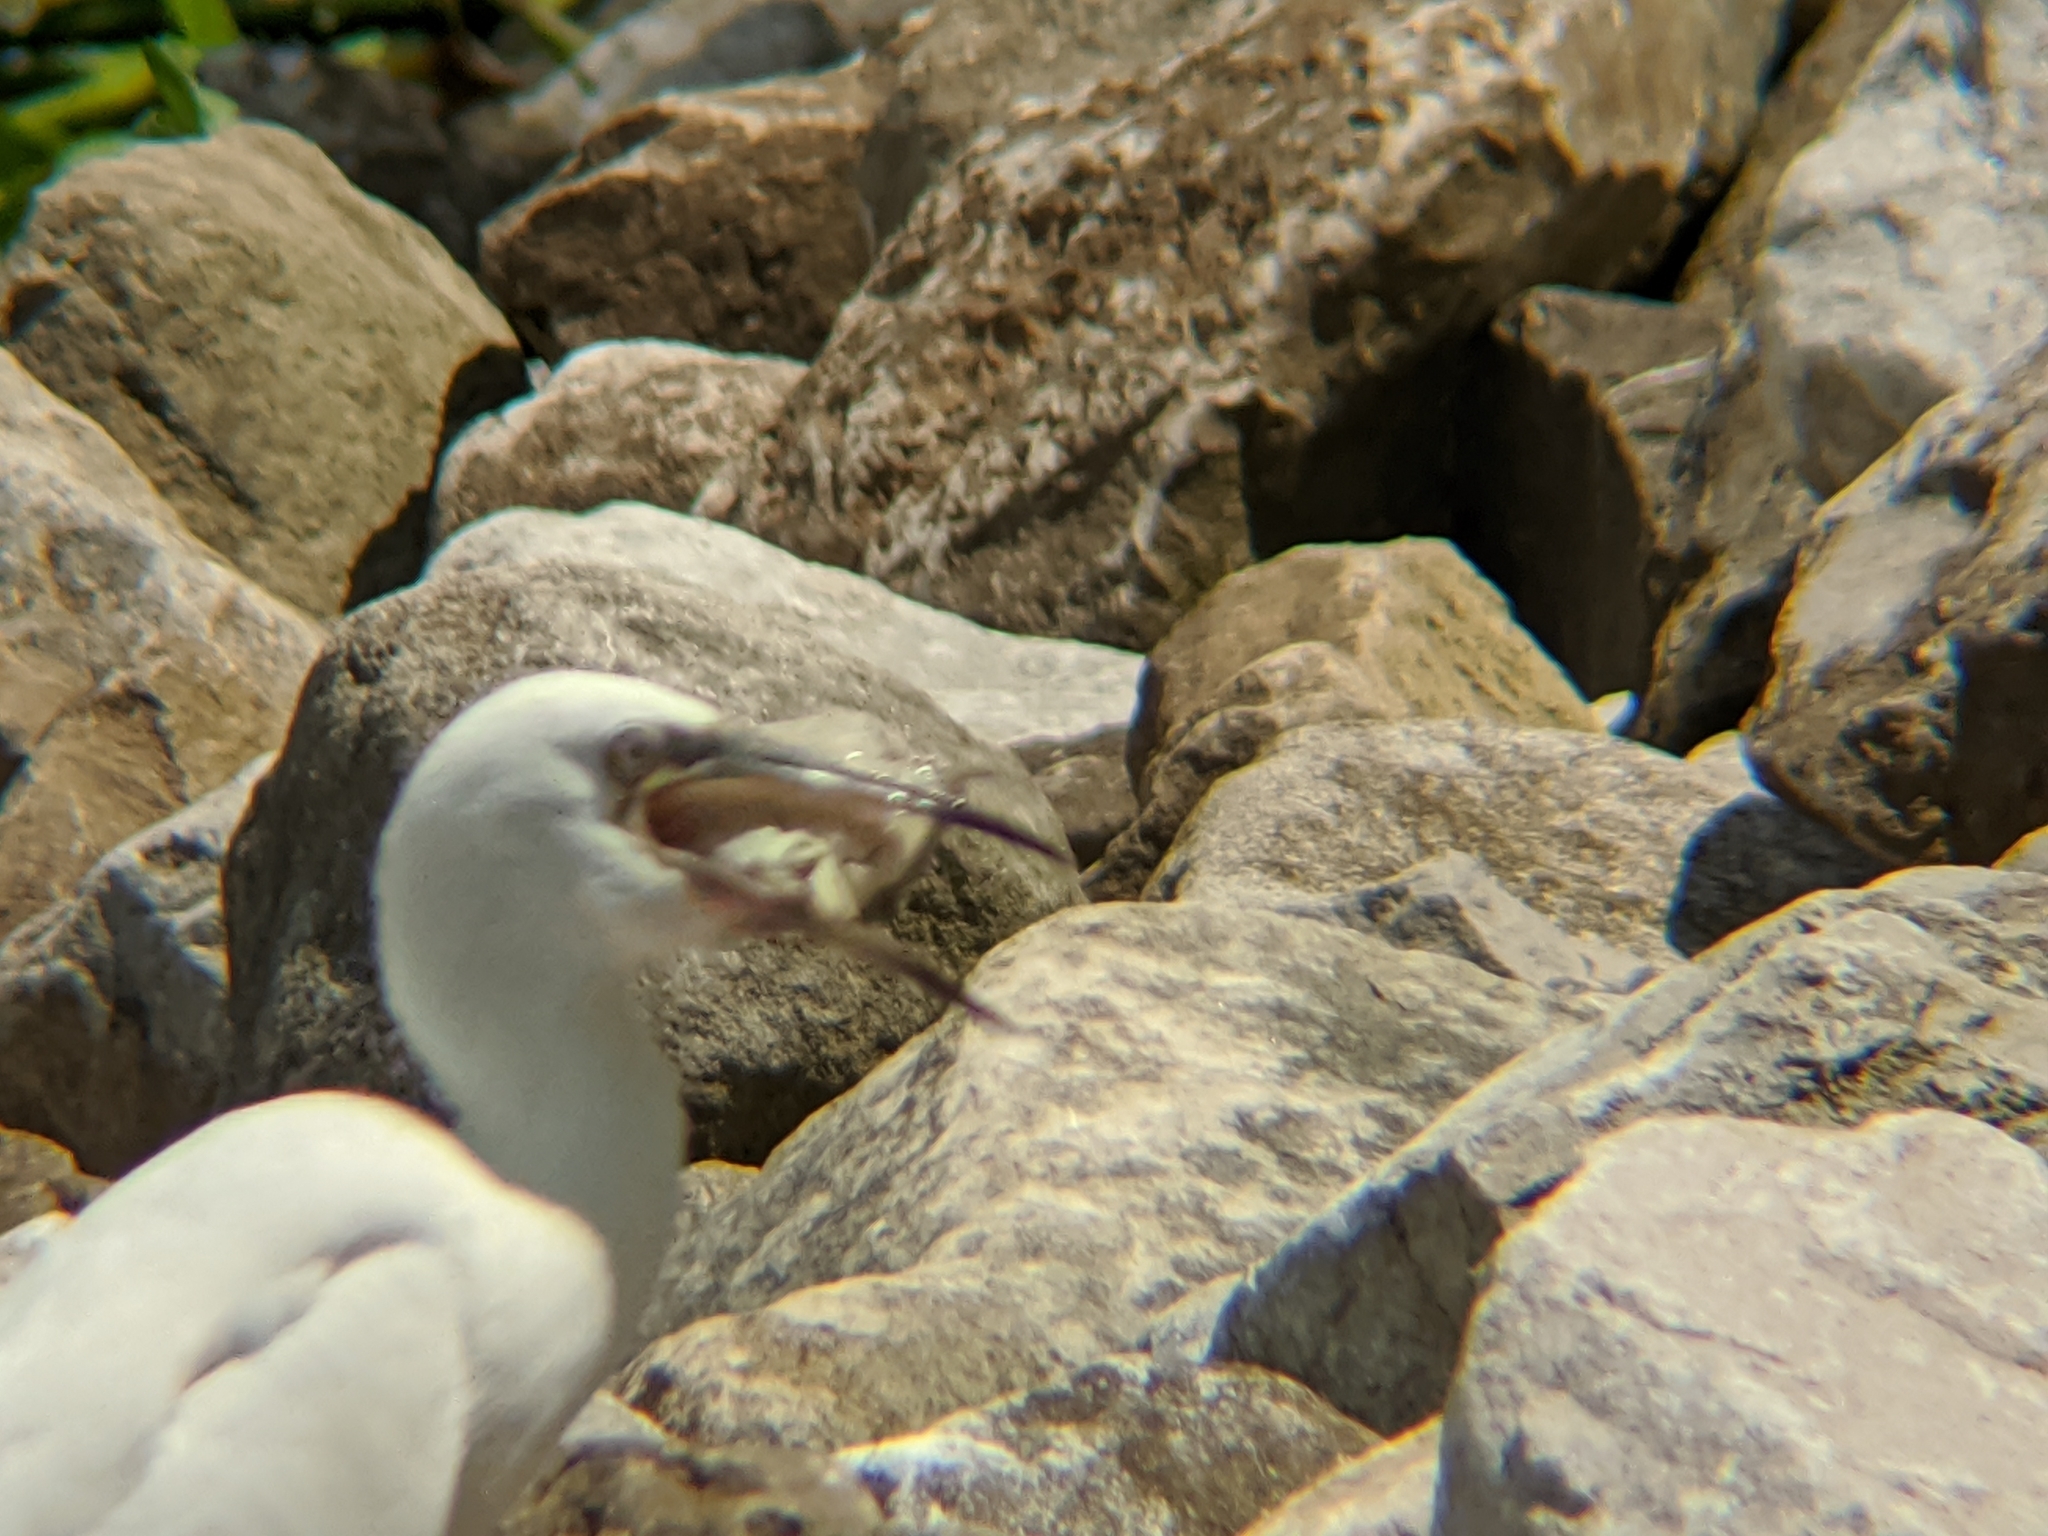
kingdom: Animalia
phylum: Chordata
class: Aves
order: Pelecaniformes
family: Ardeidae
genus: Egretta
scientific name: Egretta caerulea
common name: Little blue heron
